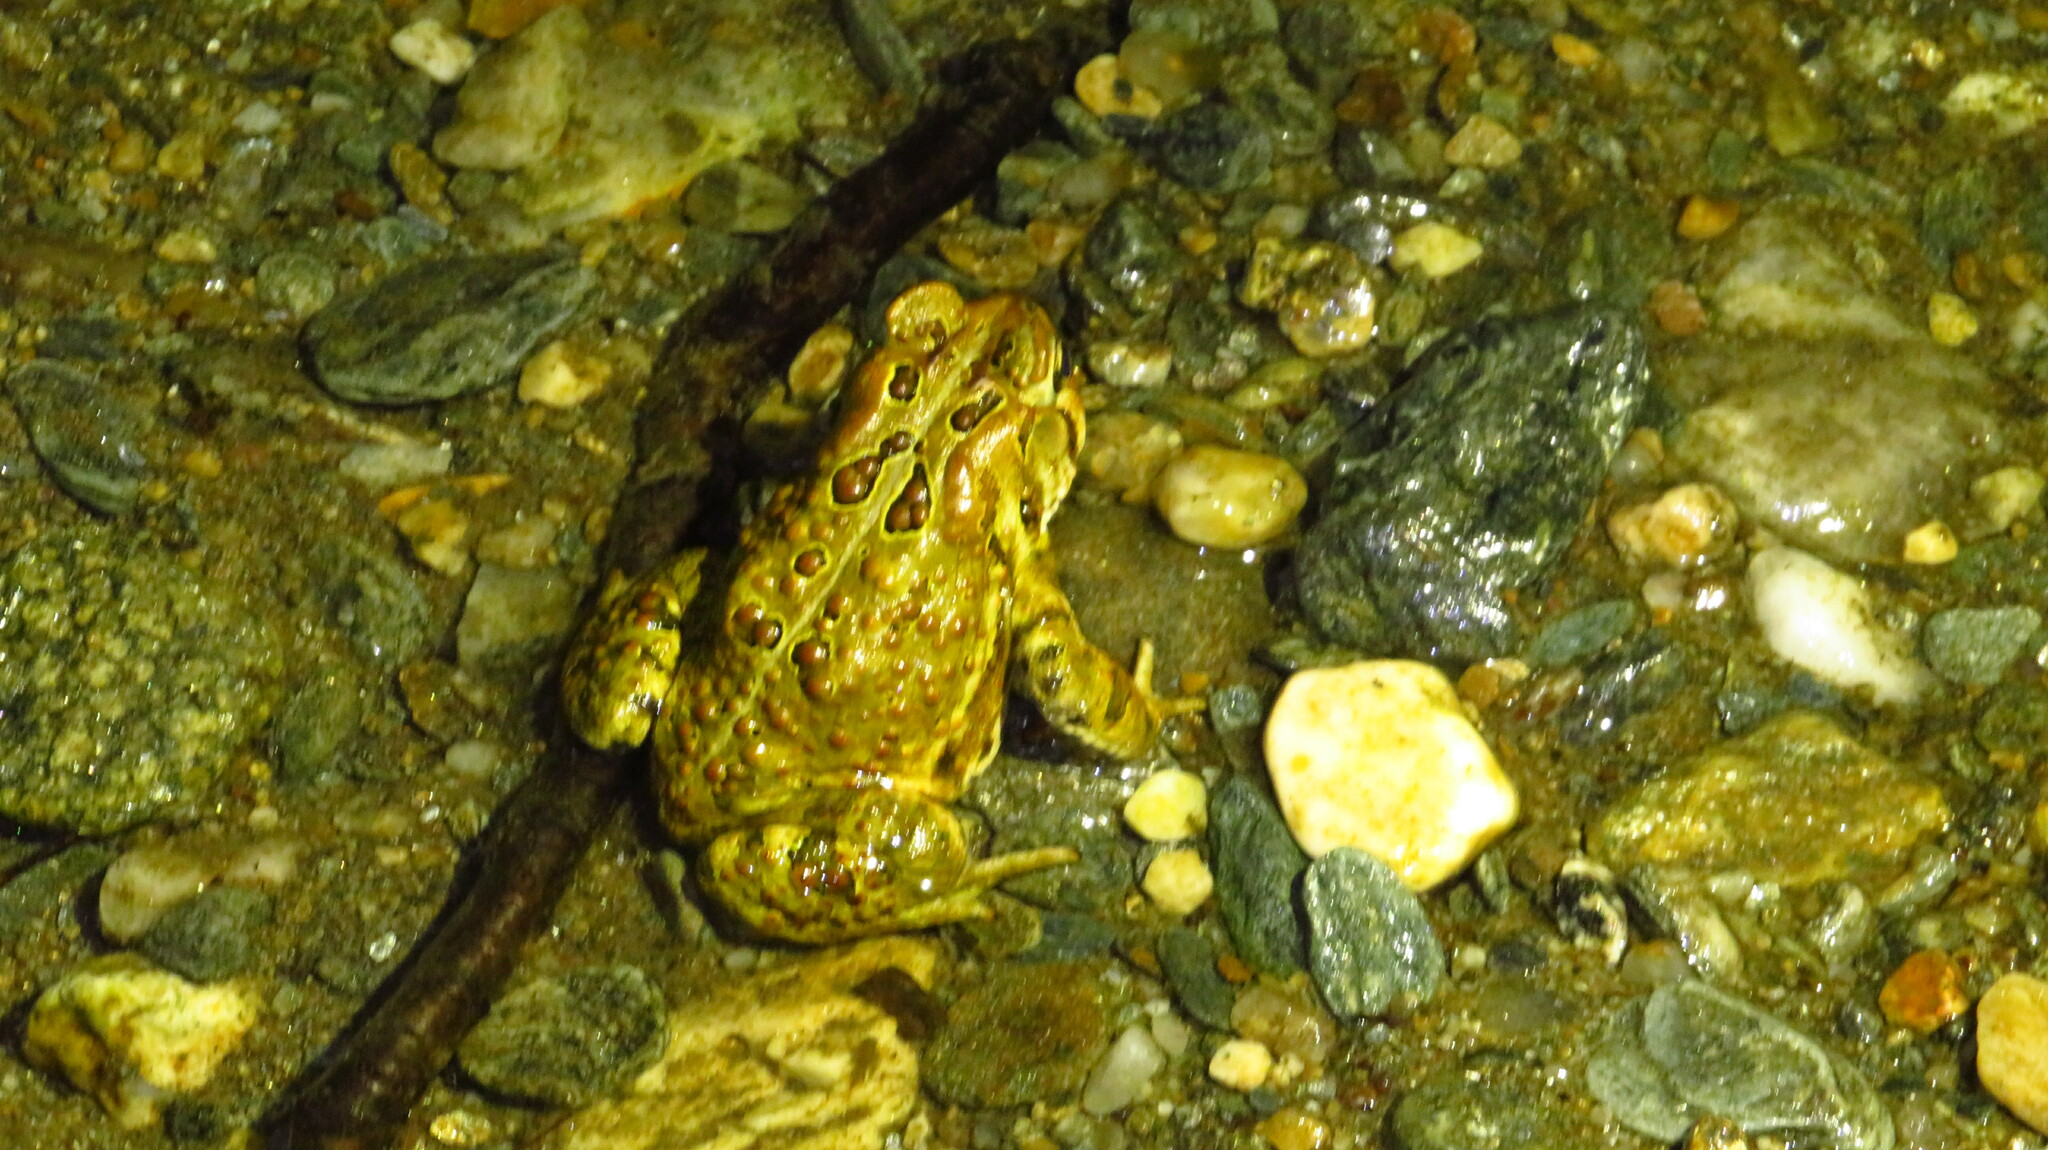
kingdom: Animalia
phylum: Chordata
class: Amphibia
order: Anura
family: Bufonidae
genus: Anaxyrus
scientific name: Anaxyrus americanus
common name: American toad
